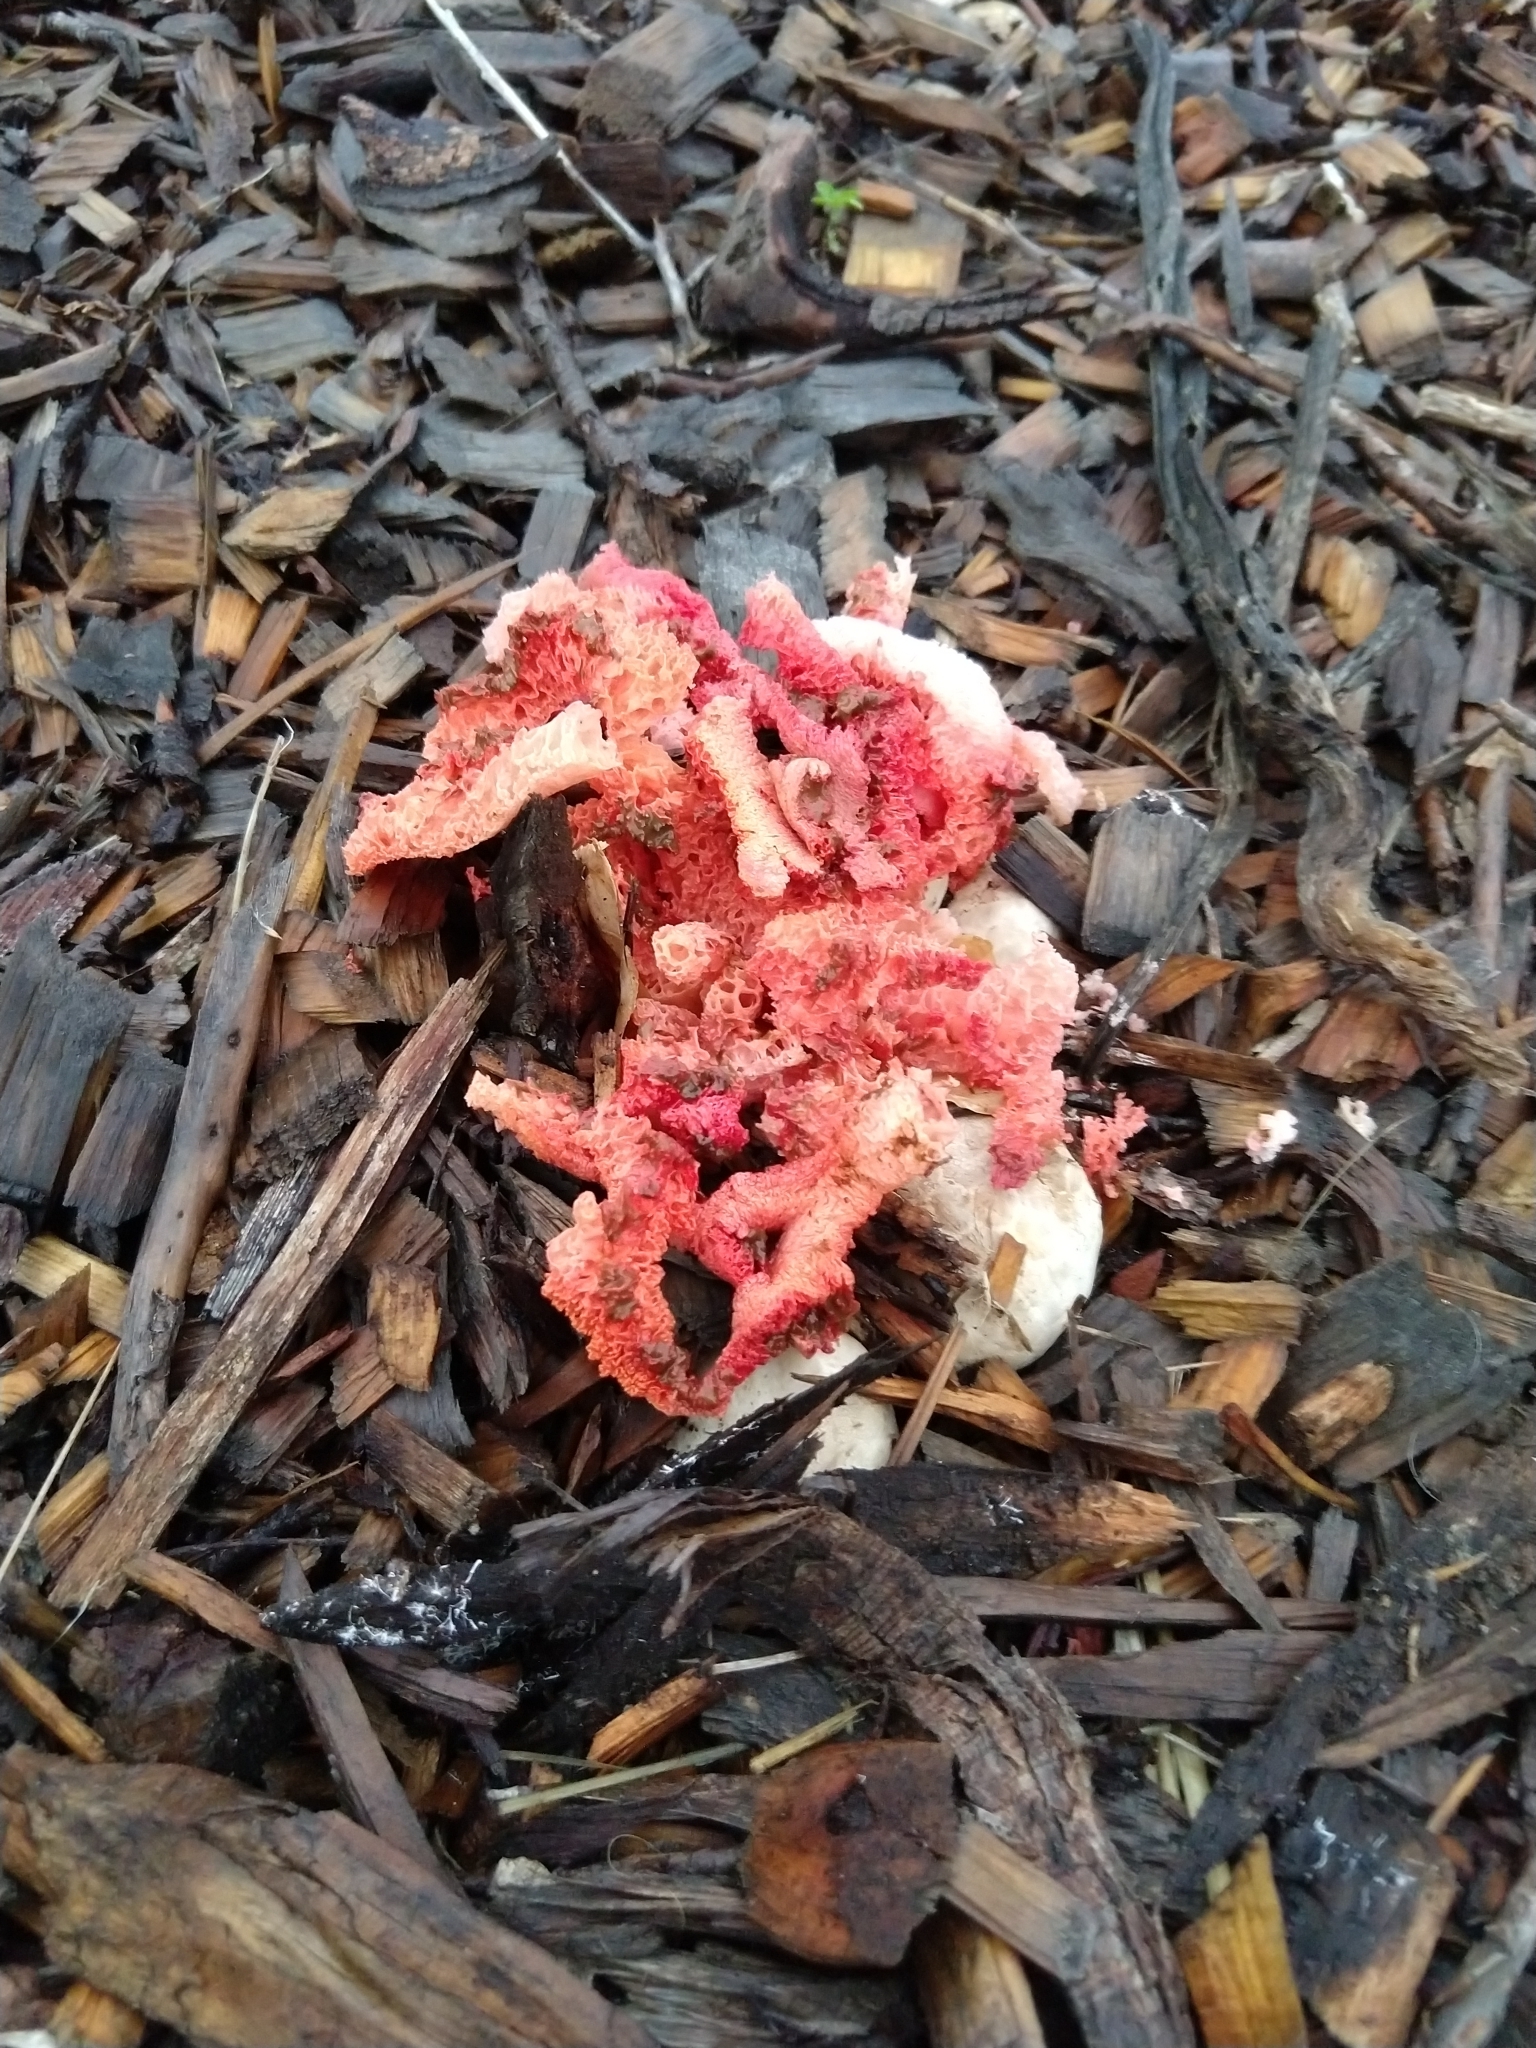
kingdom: Fungi
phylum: Basidiomycota
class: Agaricomycetes
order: Phallales
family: Phallaceae
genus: Clathrus
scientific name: Clathrus ruber
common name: Red cage
